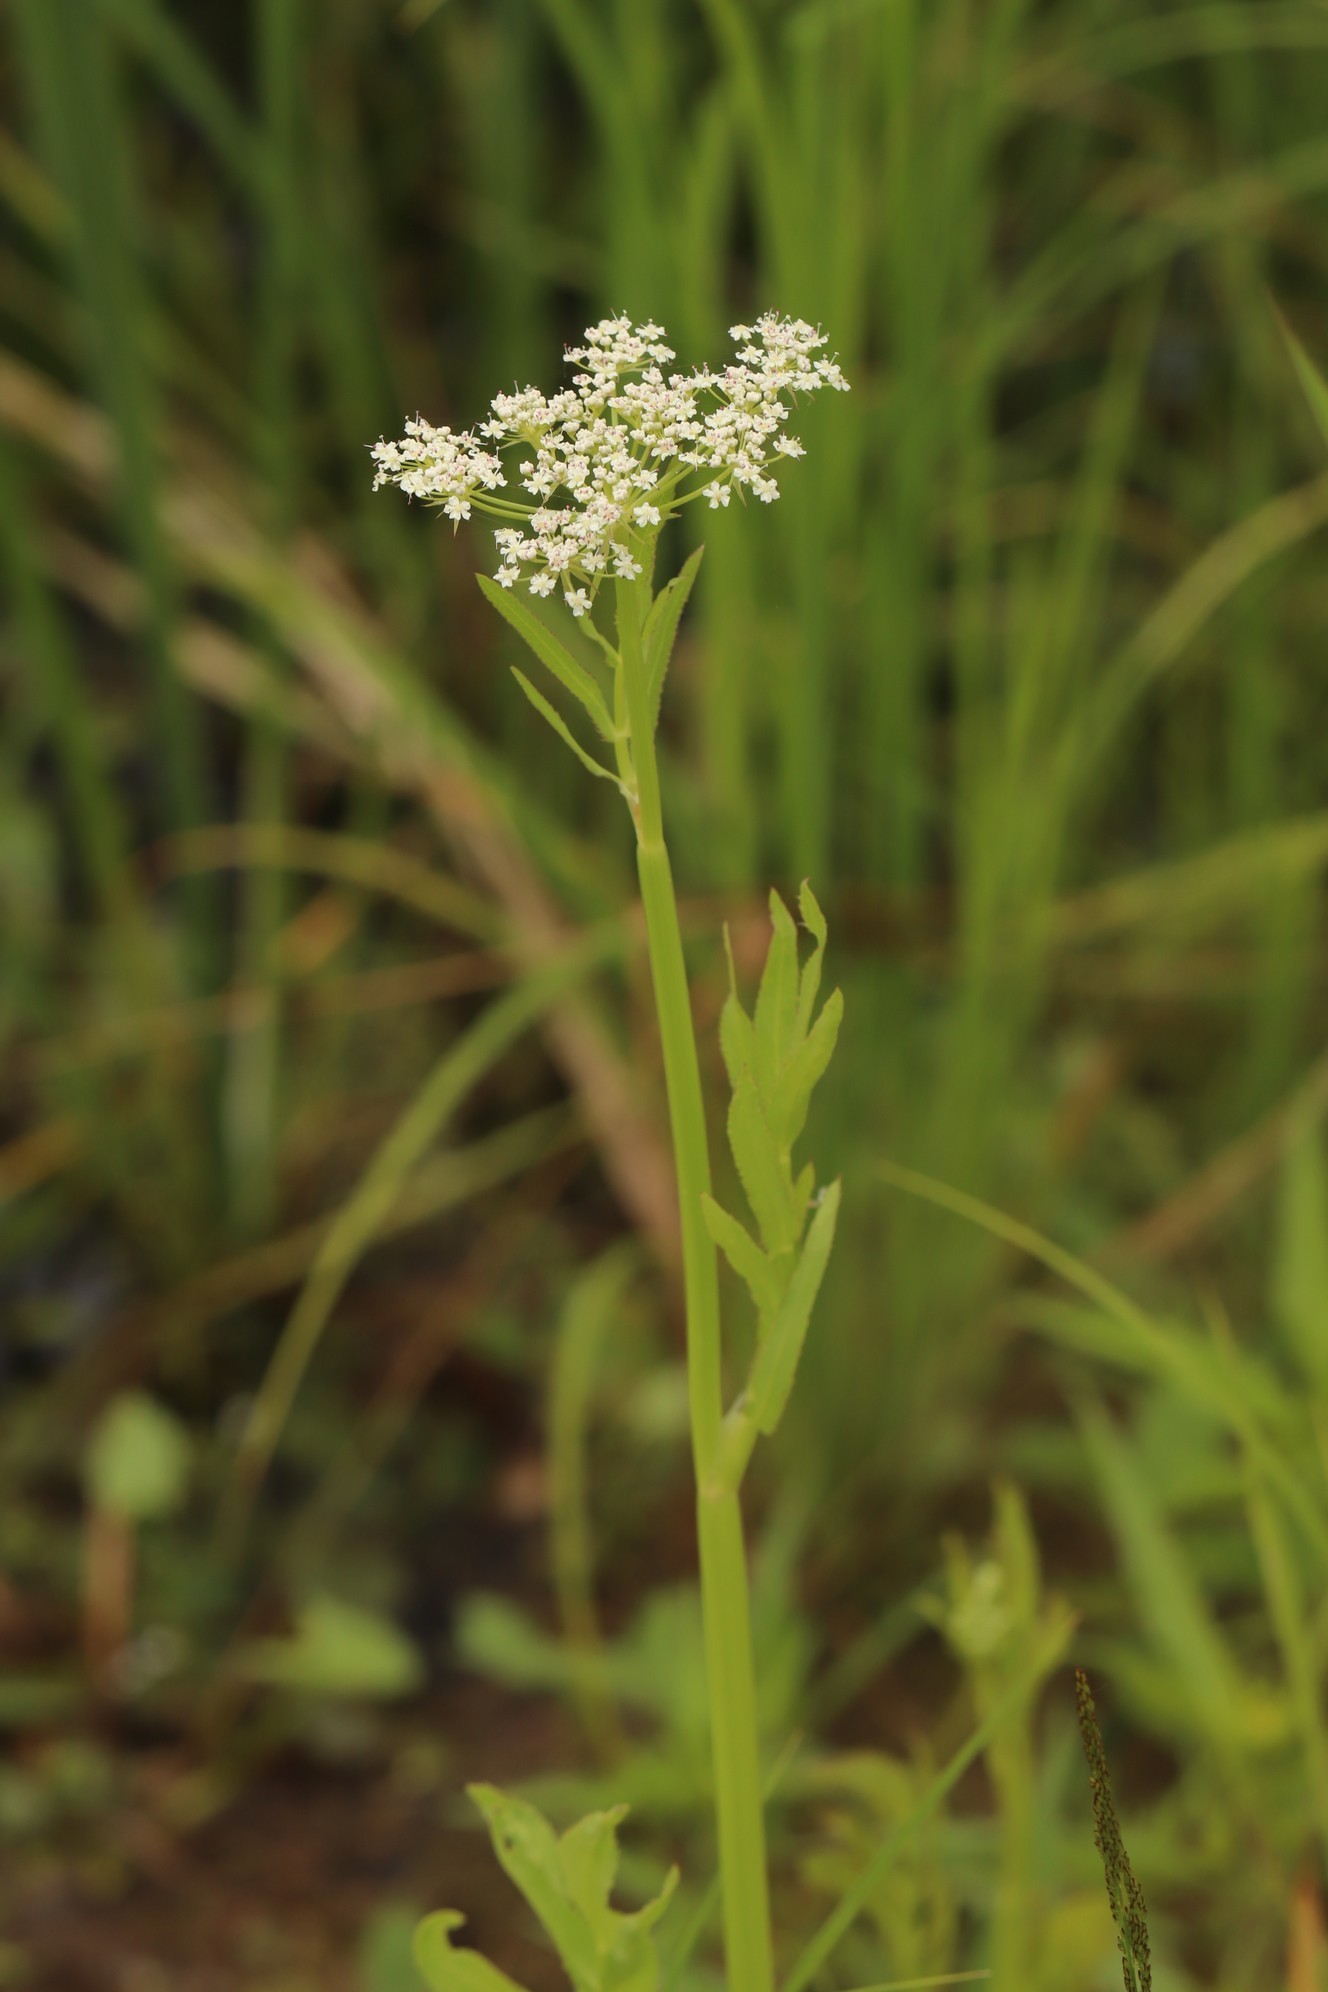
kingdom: Plantae
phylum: Tracheophyta
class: Magnoliopsida
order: Apiales
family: Apiaceae
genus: Sium
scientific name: Sium latifolium
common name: Greater water-parsnip
